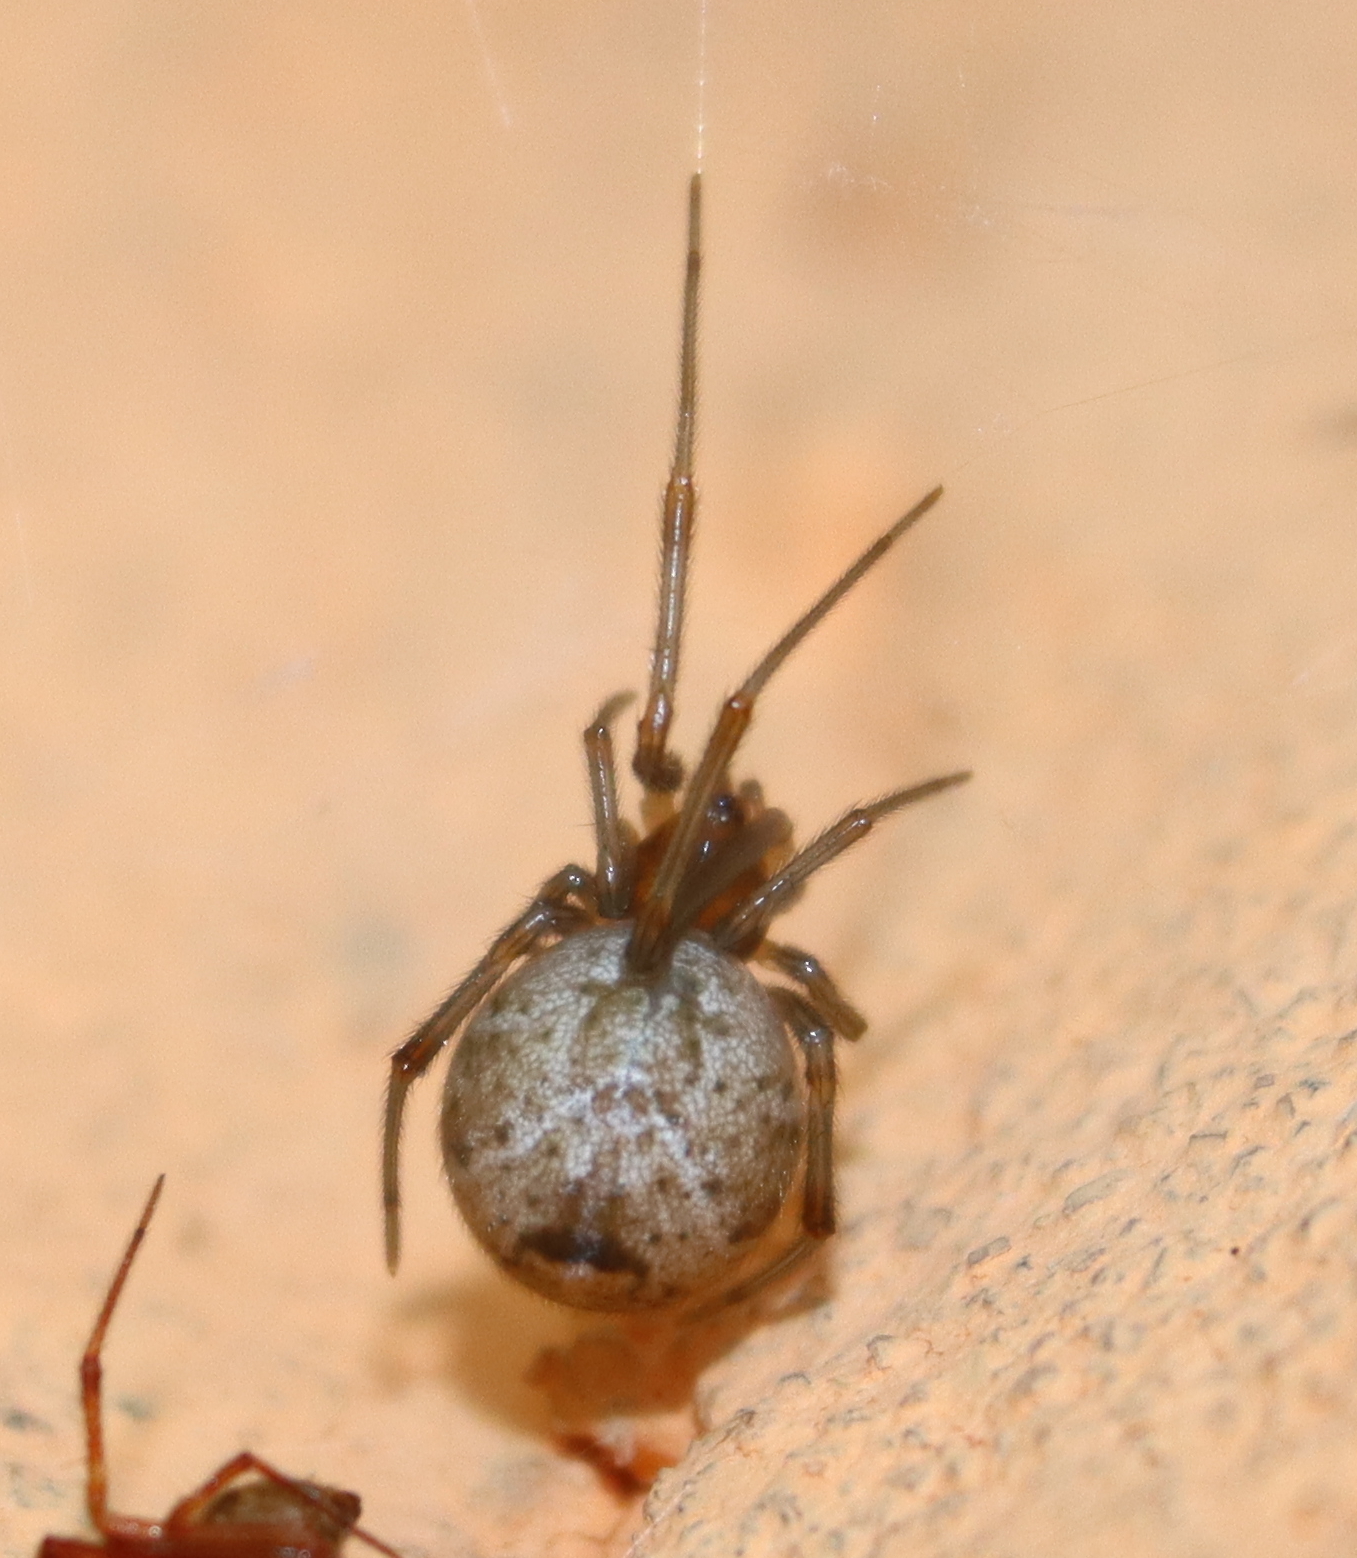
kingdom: Animalia
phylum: Arthropoda
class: Arachnida
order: Araneae
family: Theridiidae
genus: Parasteatoda
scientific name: Parasteatoda tepidariorum
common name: Common house spider
